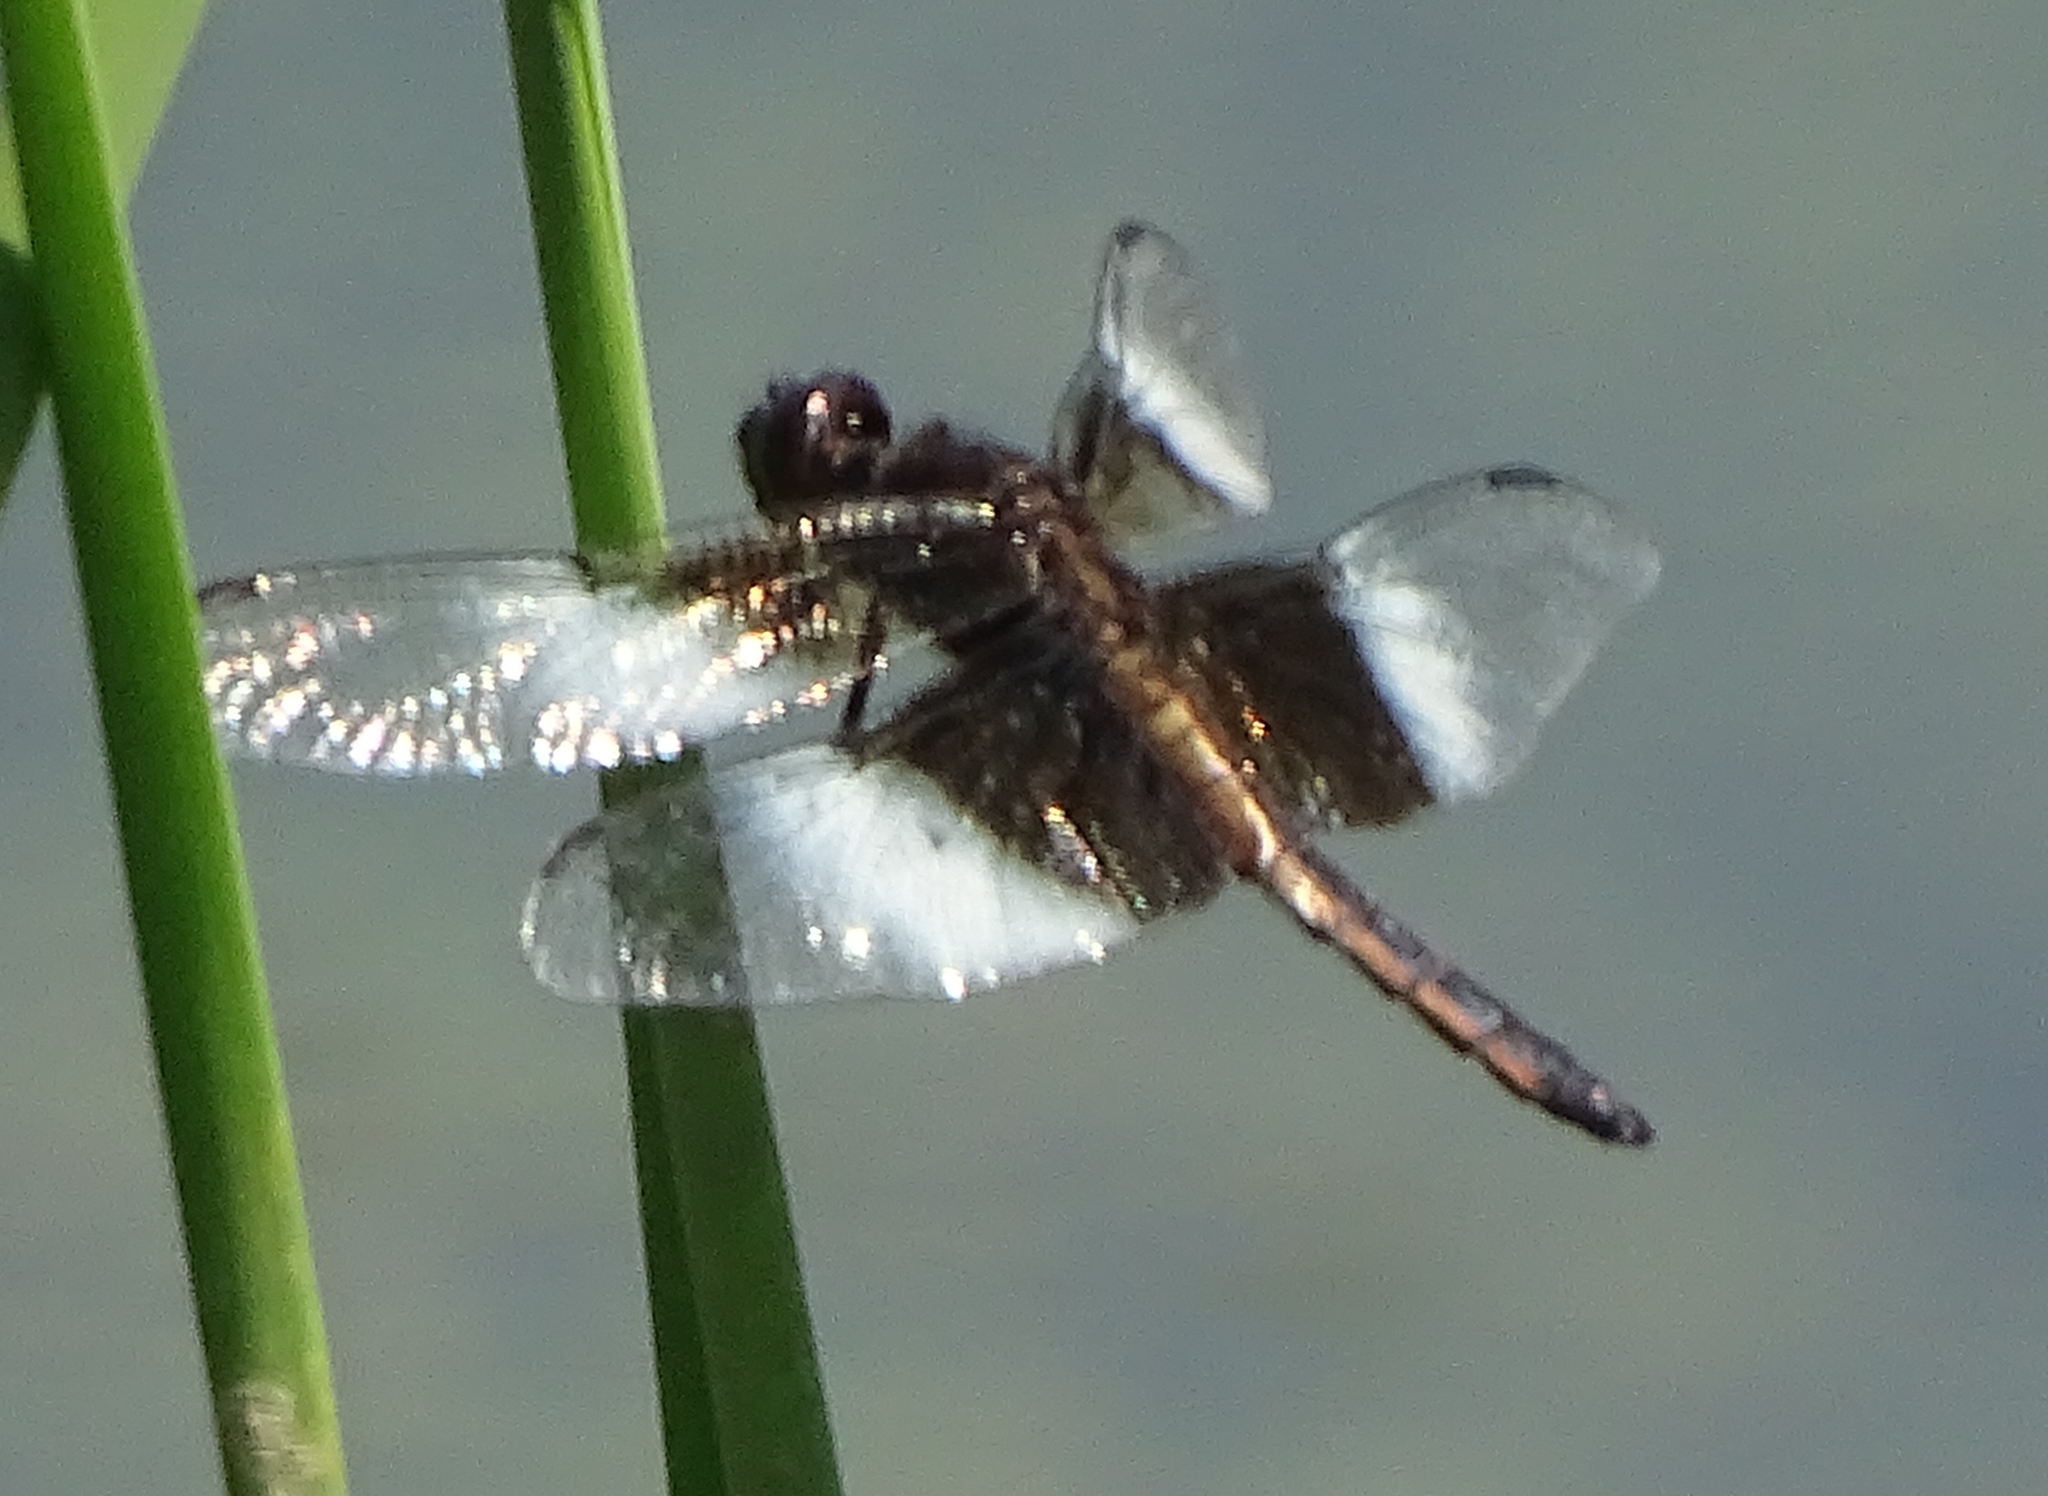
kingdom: Animalia
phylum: Arthropoda
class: Insecta
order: Odonata
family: Libellulidae
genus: Libellula
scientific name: Libellula luctuosa
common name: Widow skimmer
